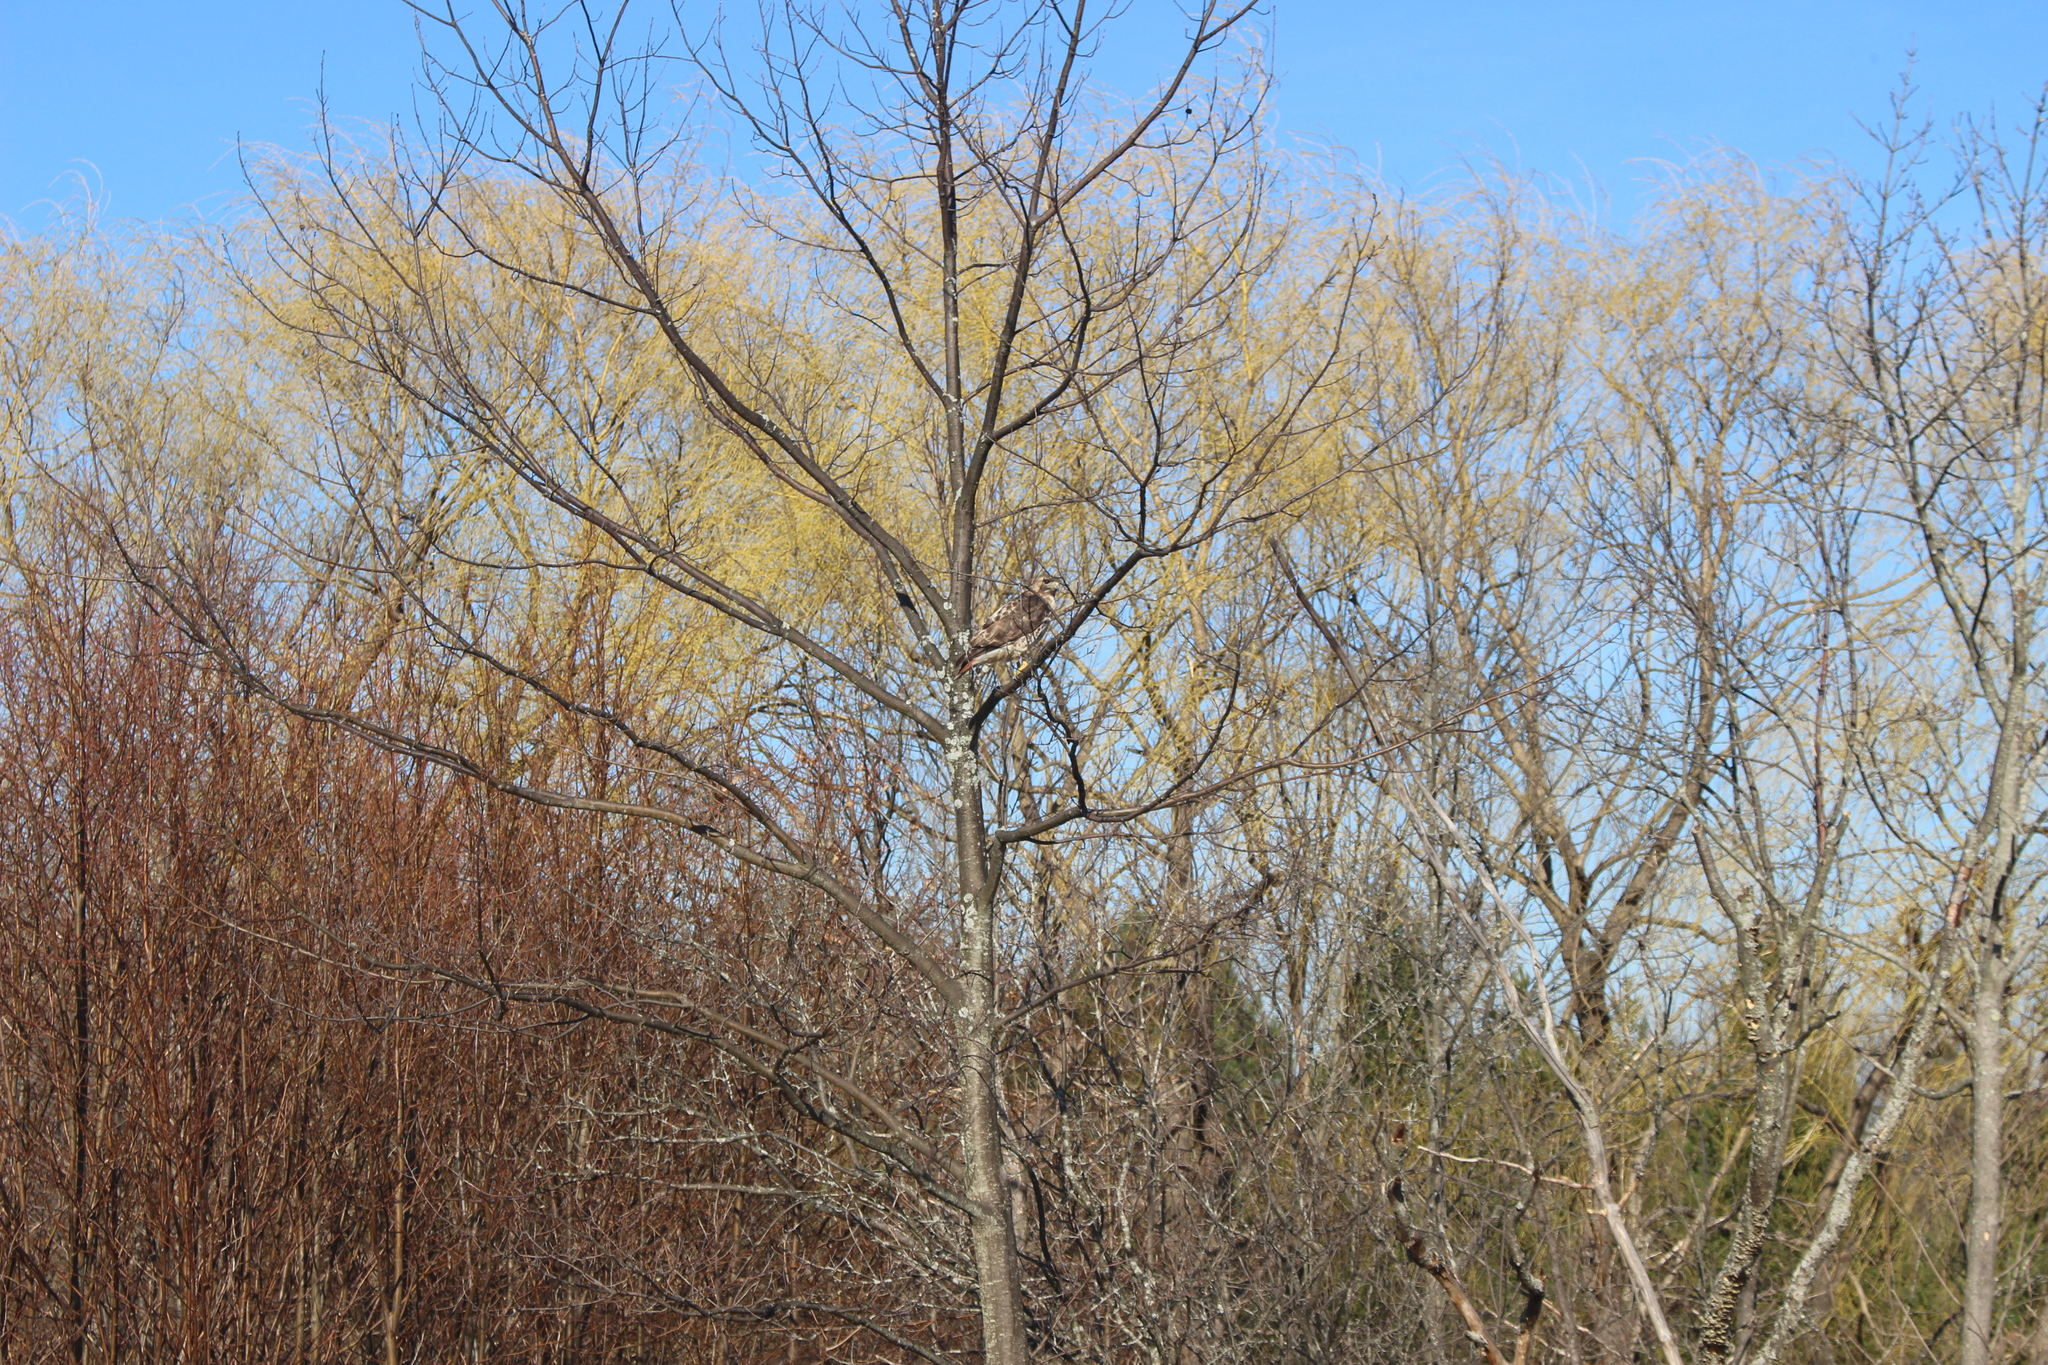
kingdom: Animalia
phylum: Chordata
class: Aves
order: Accipitriformes
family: Accipitridae
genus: Buteo
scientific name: Buteo jamaicensis
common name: Red-tailed hawk
